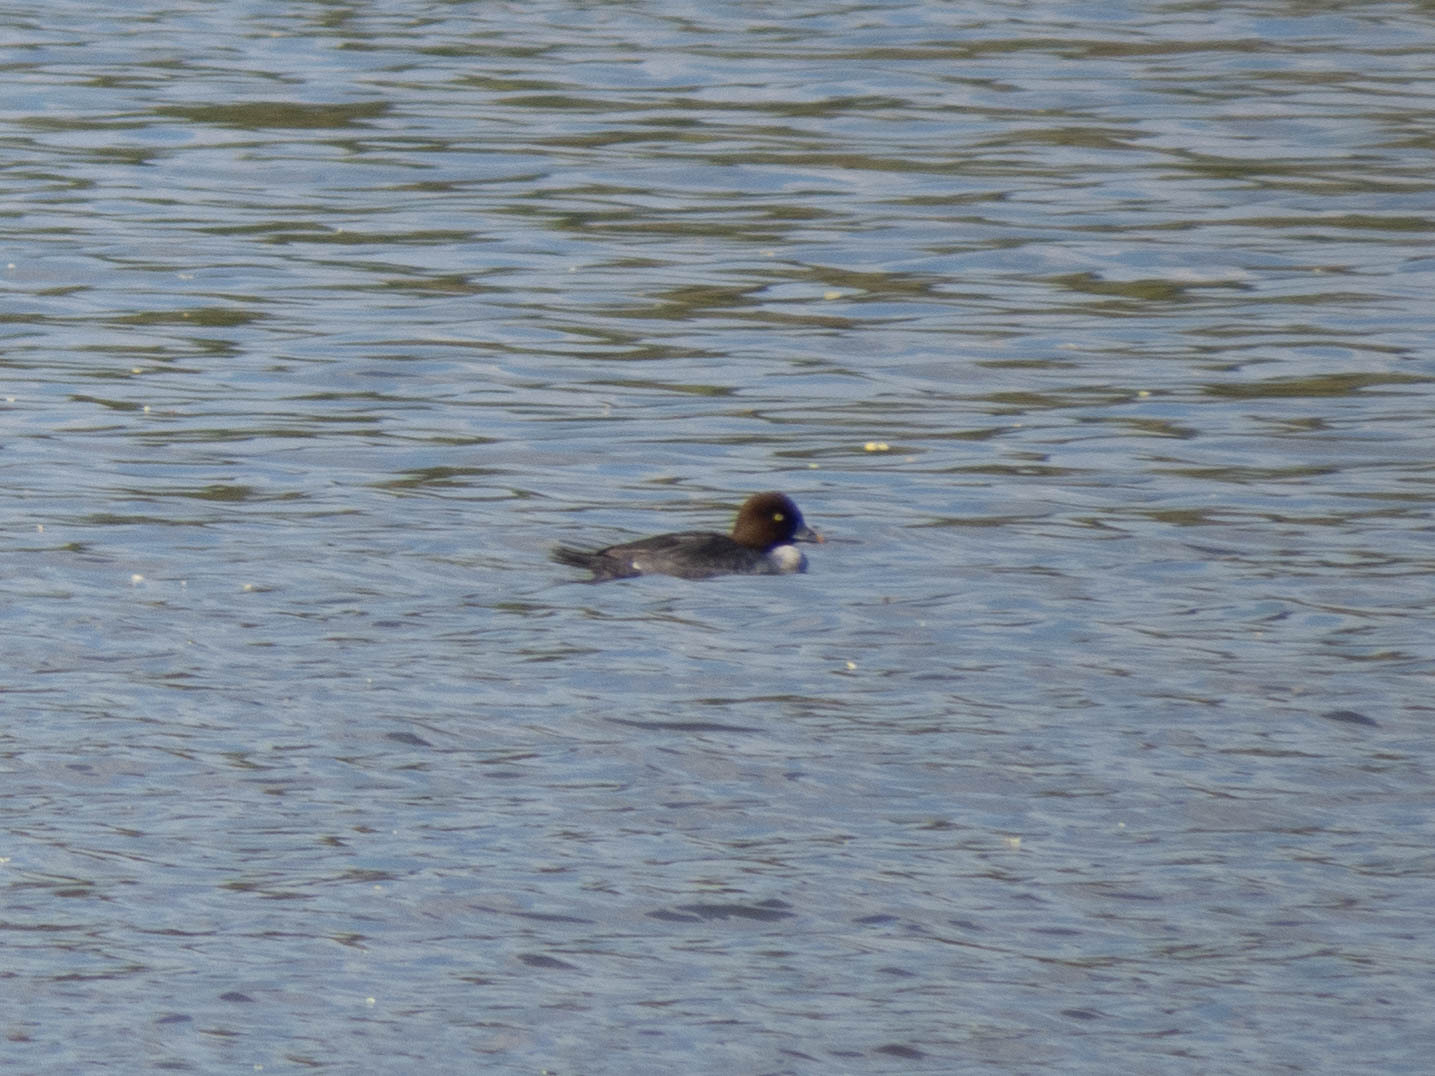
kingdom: Animalia
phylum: Chordata
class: Aves
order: Anseriformes
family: Anatidae
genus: Bucephala
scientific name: Bucephala clangula
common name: Common goldeneye
